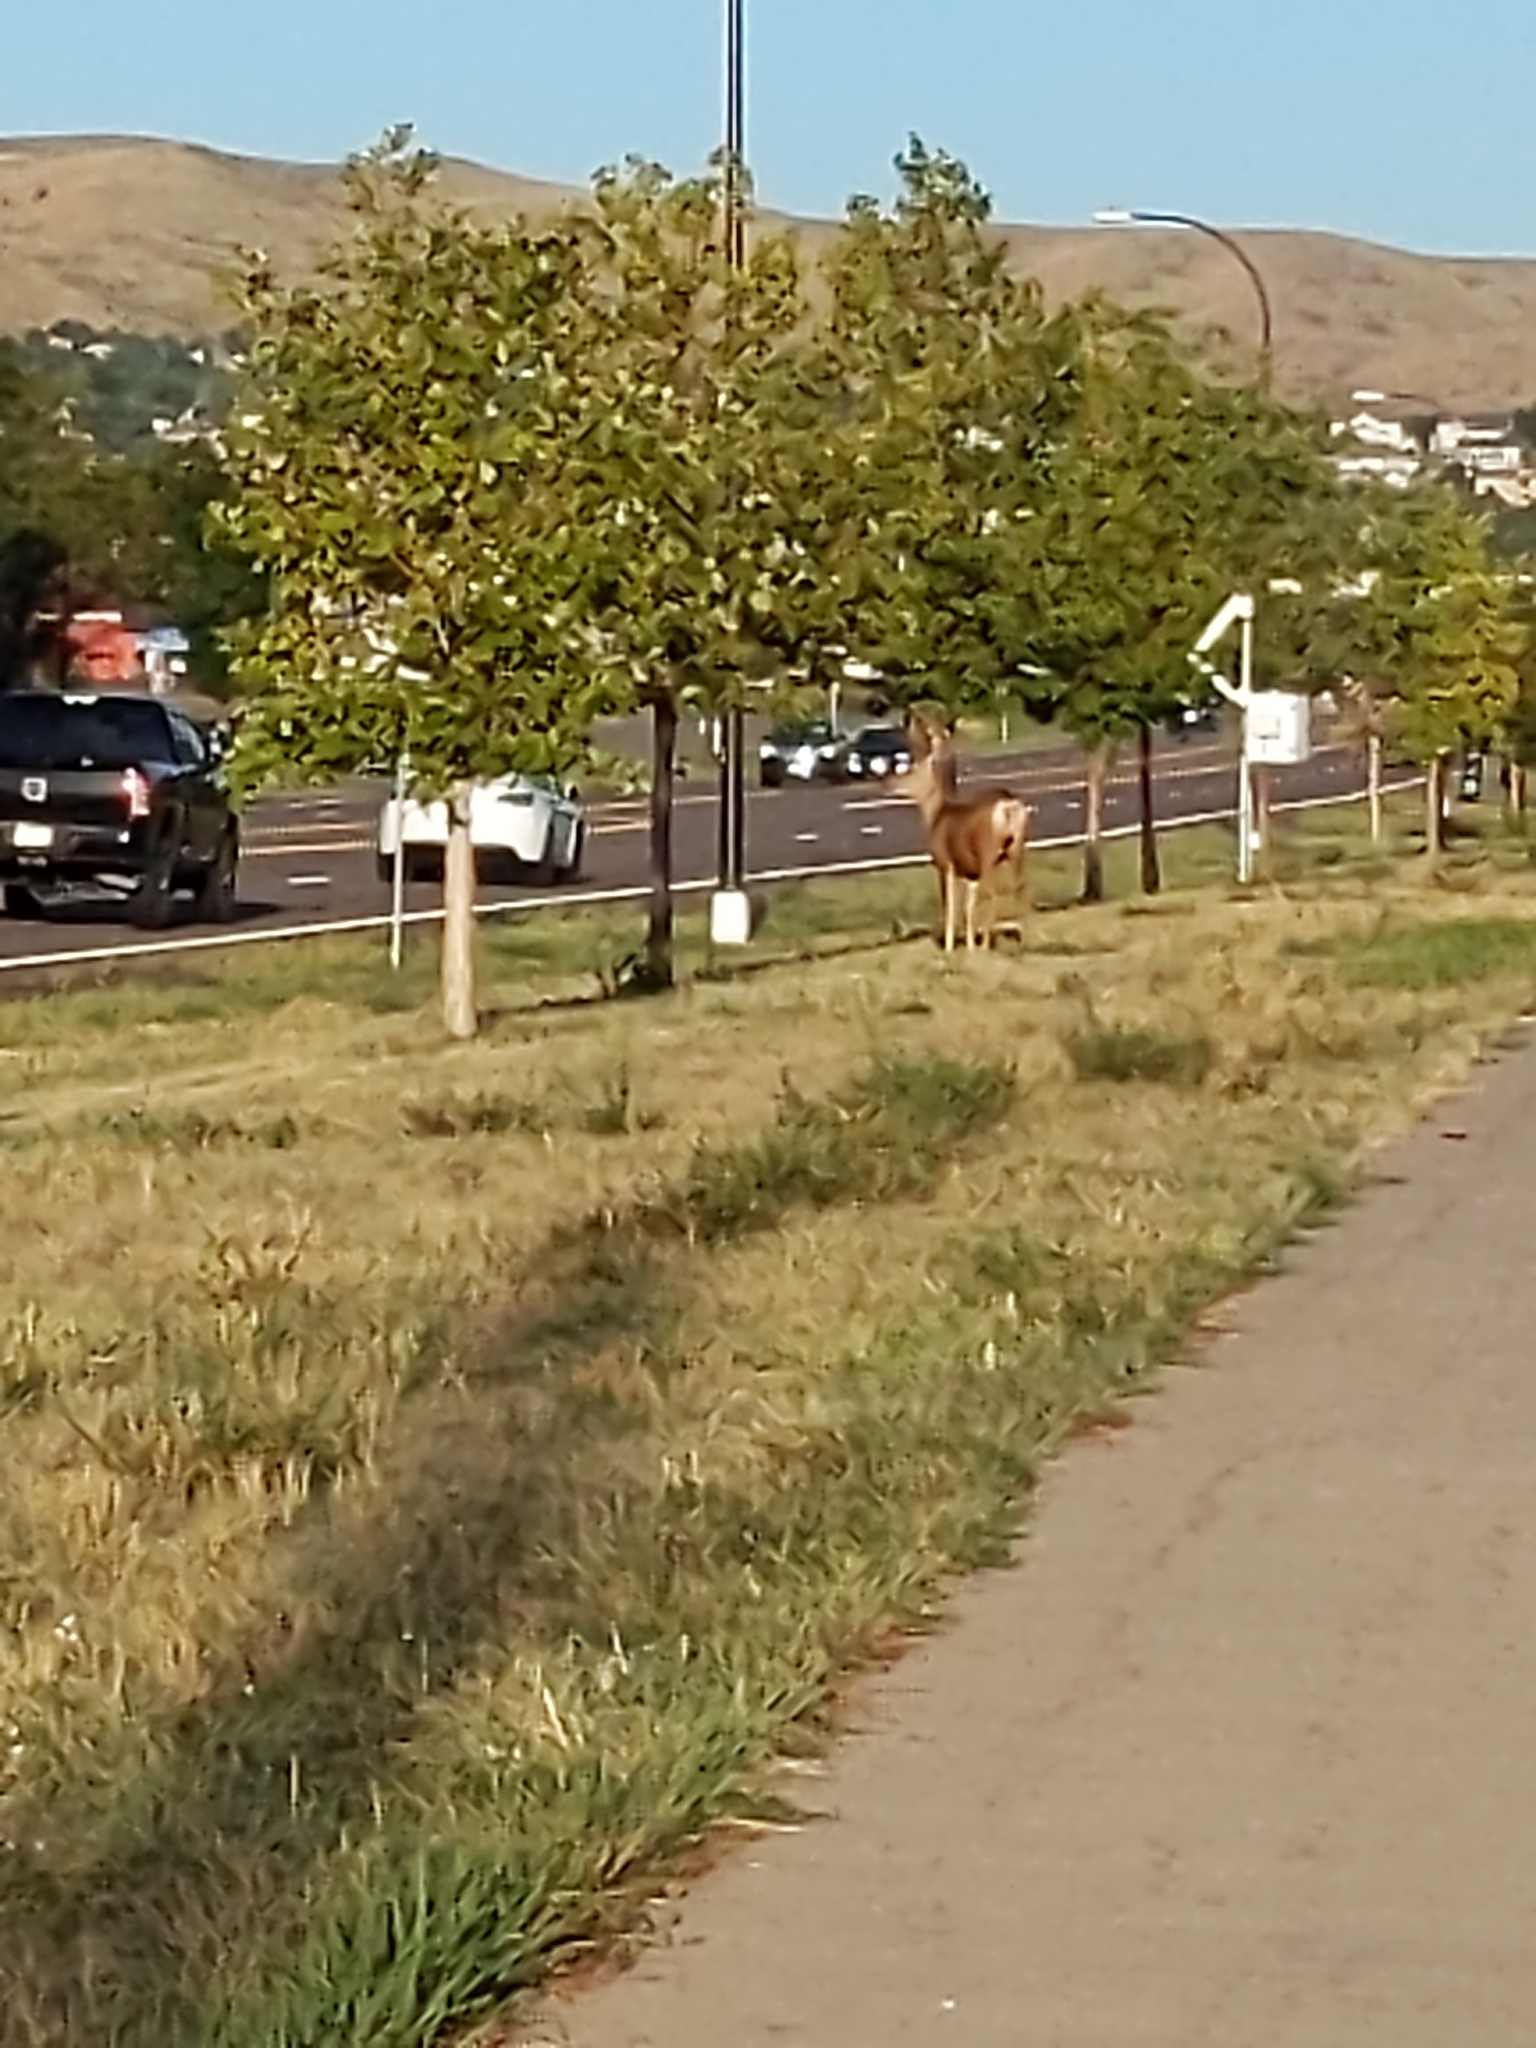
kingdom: Animalia
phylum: Chordata
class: Mammalia
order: Artiodactyla
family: Cervidae
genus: Odocoileus
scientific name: Odocoileus hemionus
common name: Mule deer
